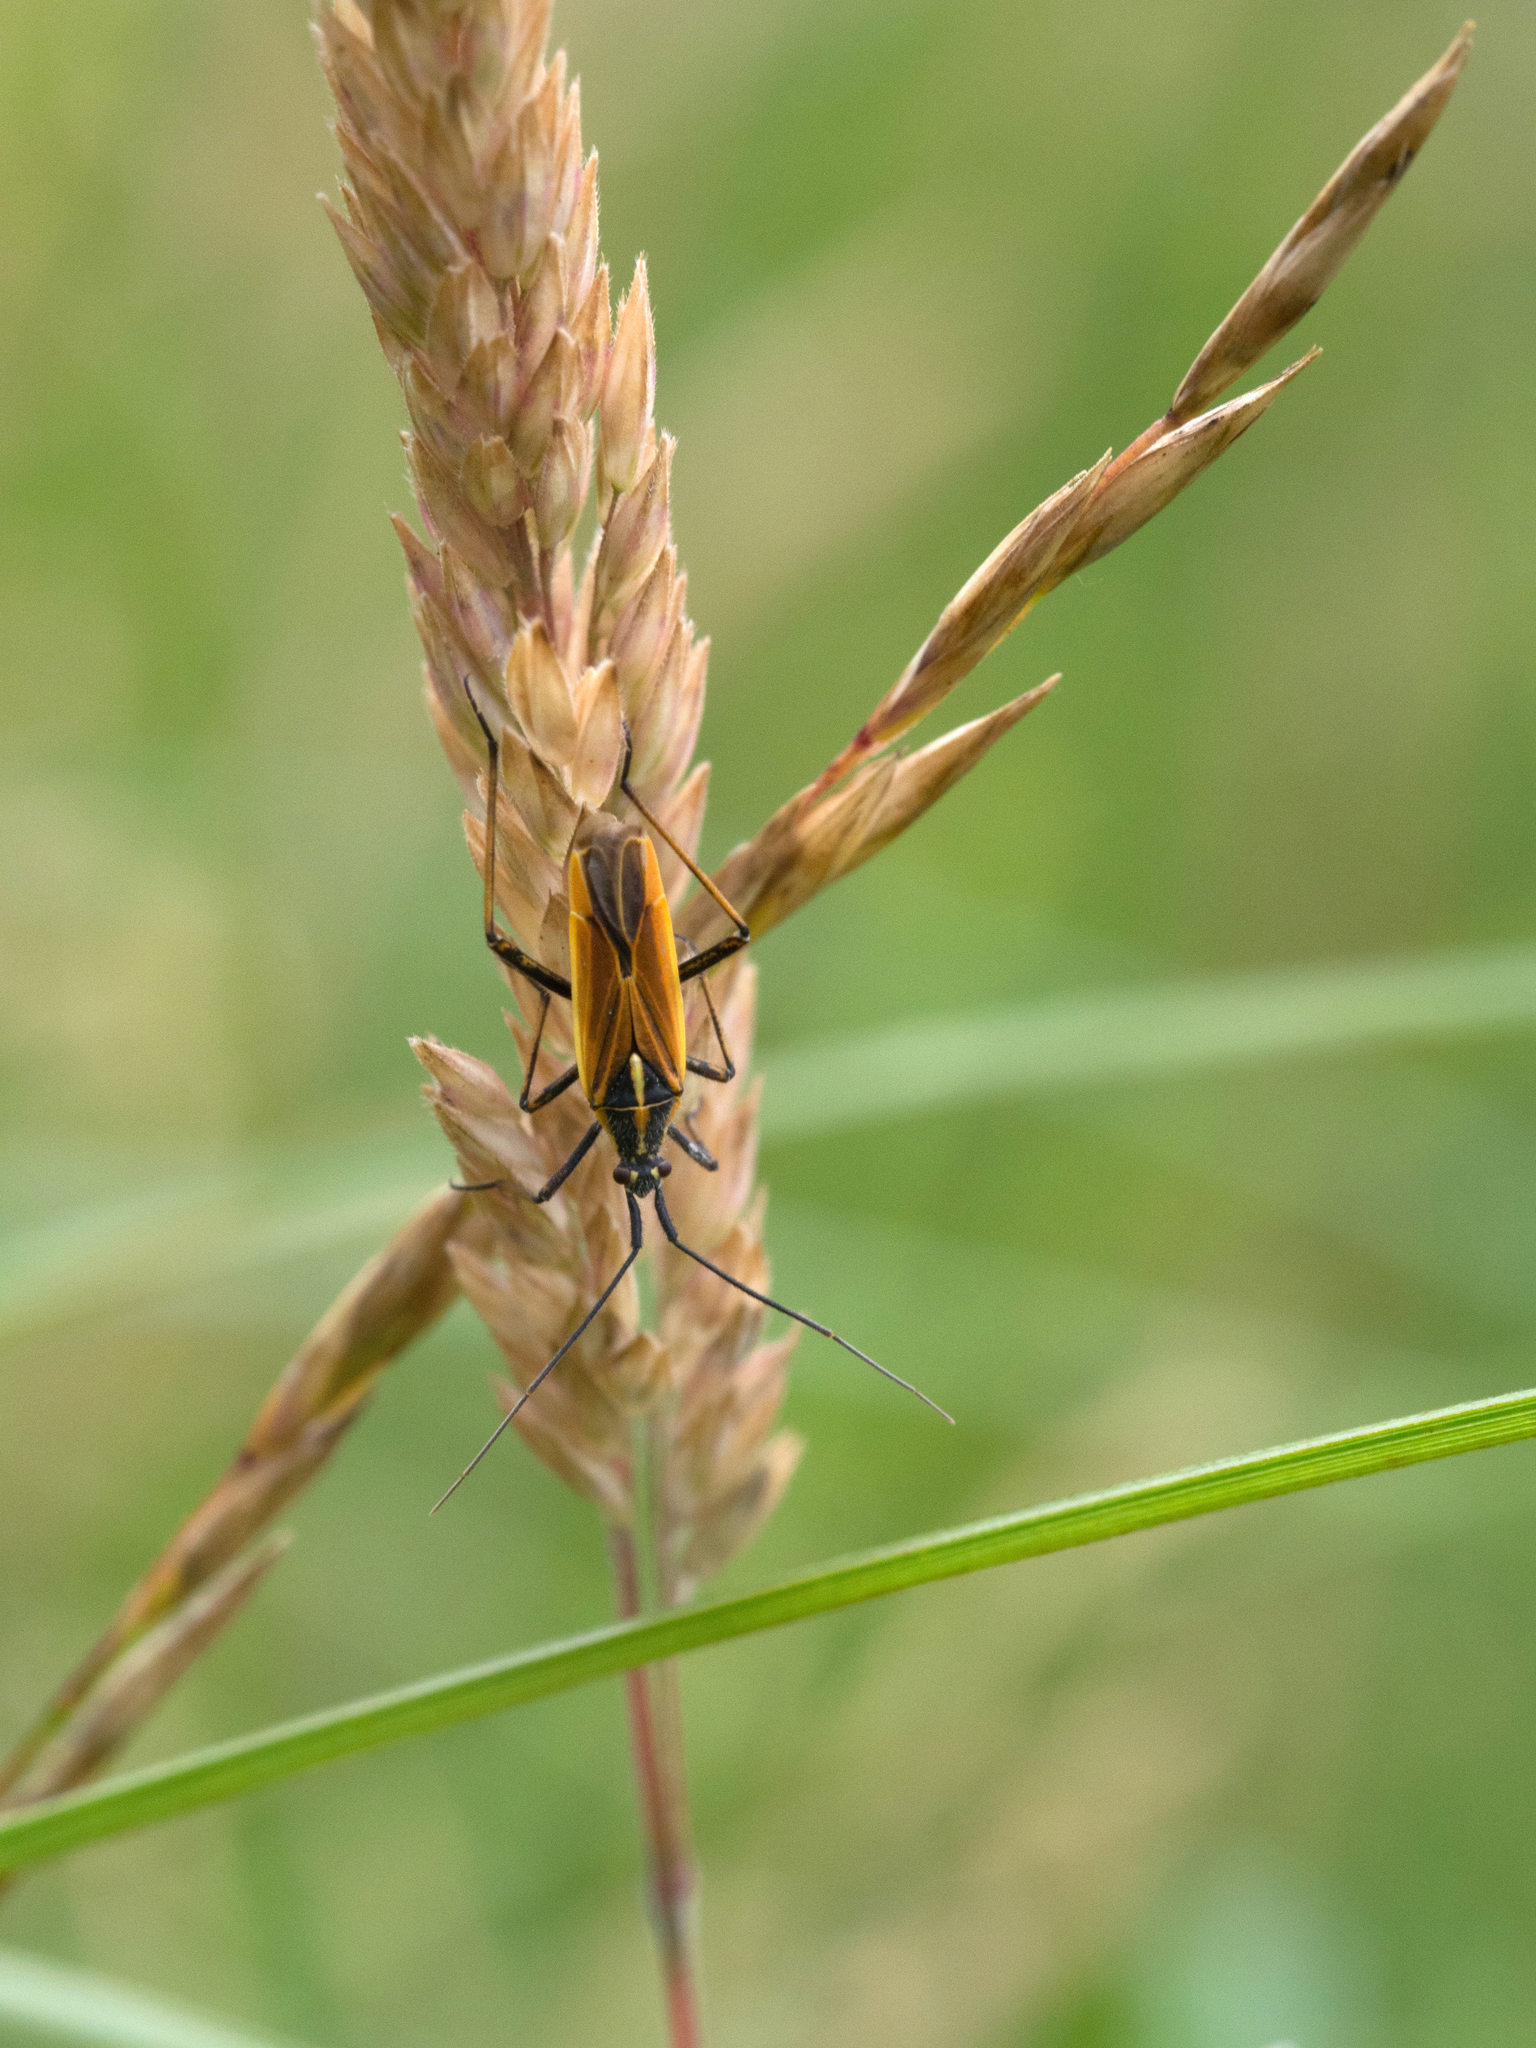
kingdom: Animalia
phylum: Arthropoda
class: Insecta
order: Hemiptera
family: Miridae
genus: Leptopterna
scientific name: Leptopterna dolabrata
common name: Meadow plant bug
